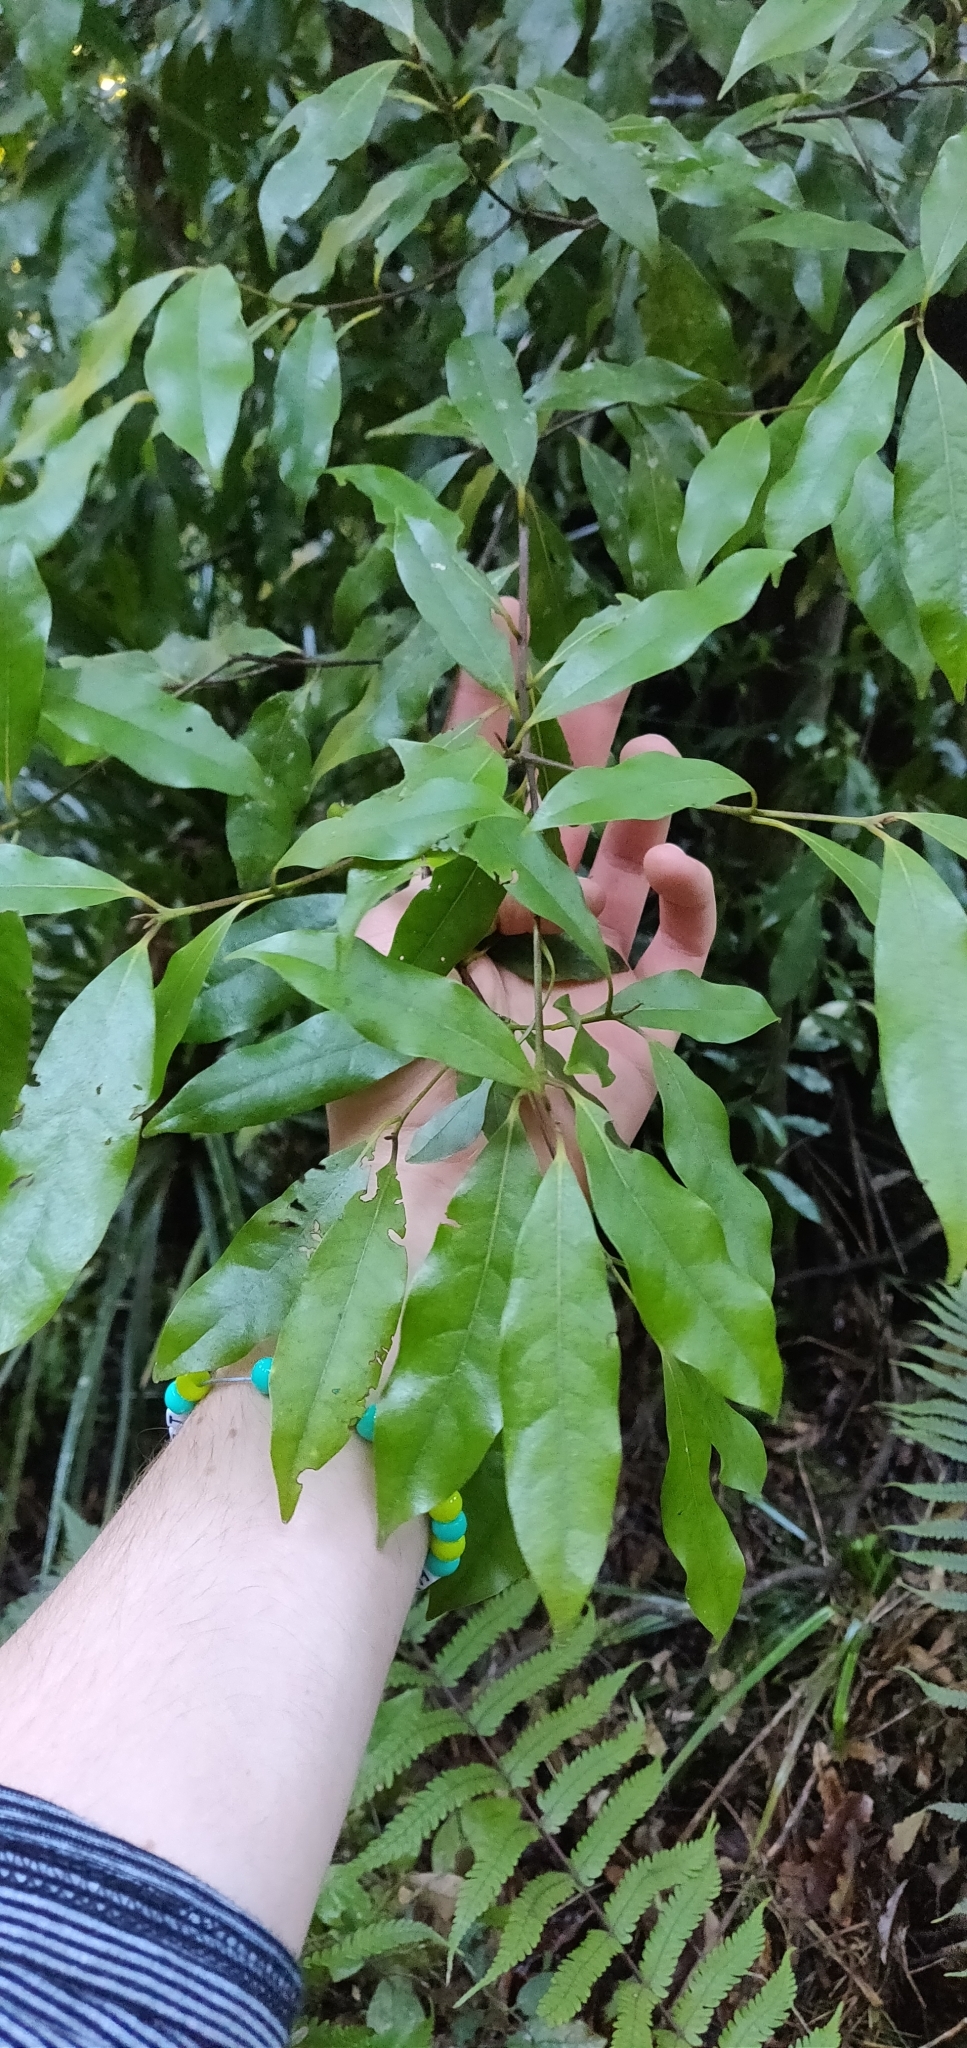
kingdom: Plantae
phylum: Tracheophyta
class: Magnoliopsida
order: Laurales
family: Lauraceae
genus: Beilschmiedia
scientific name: Beilschmiedia tawa
